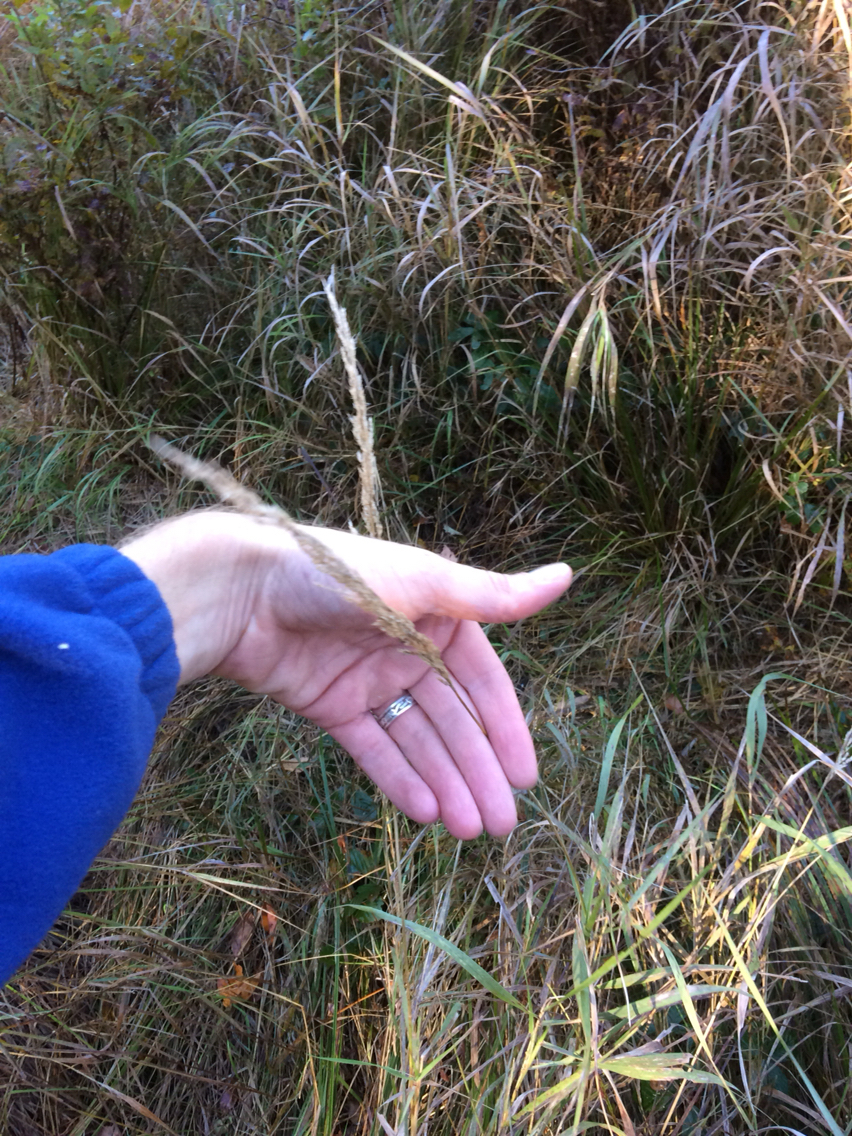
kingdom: Plantae
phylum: Tracheophyta
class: Liliopsida
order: Poales
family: Poaceae
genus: Phalaris
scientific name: Phalaris arundinacea
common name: Reed canary-grass
